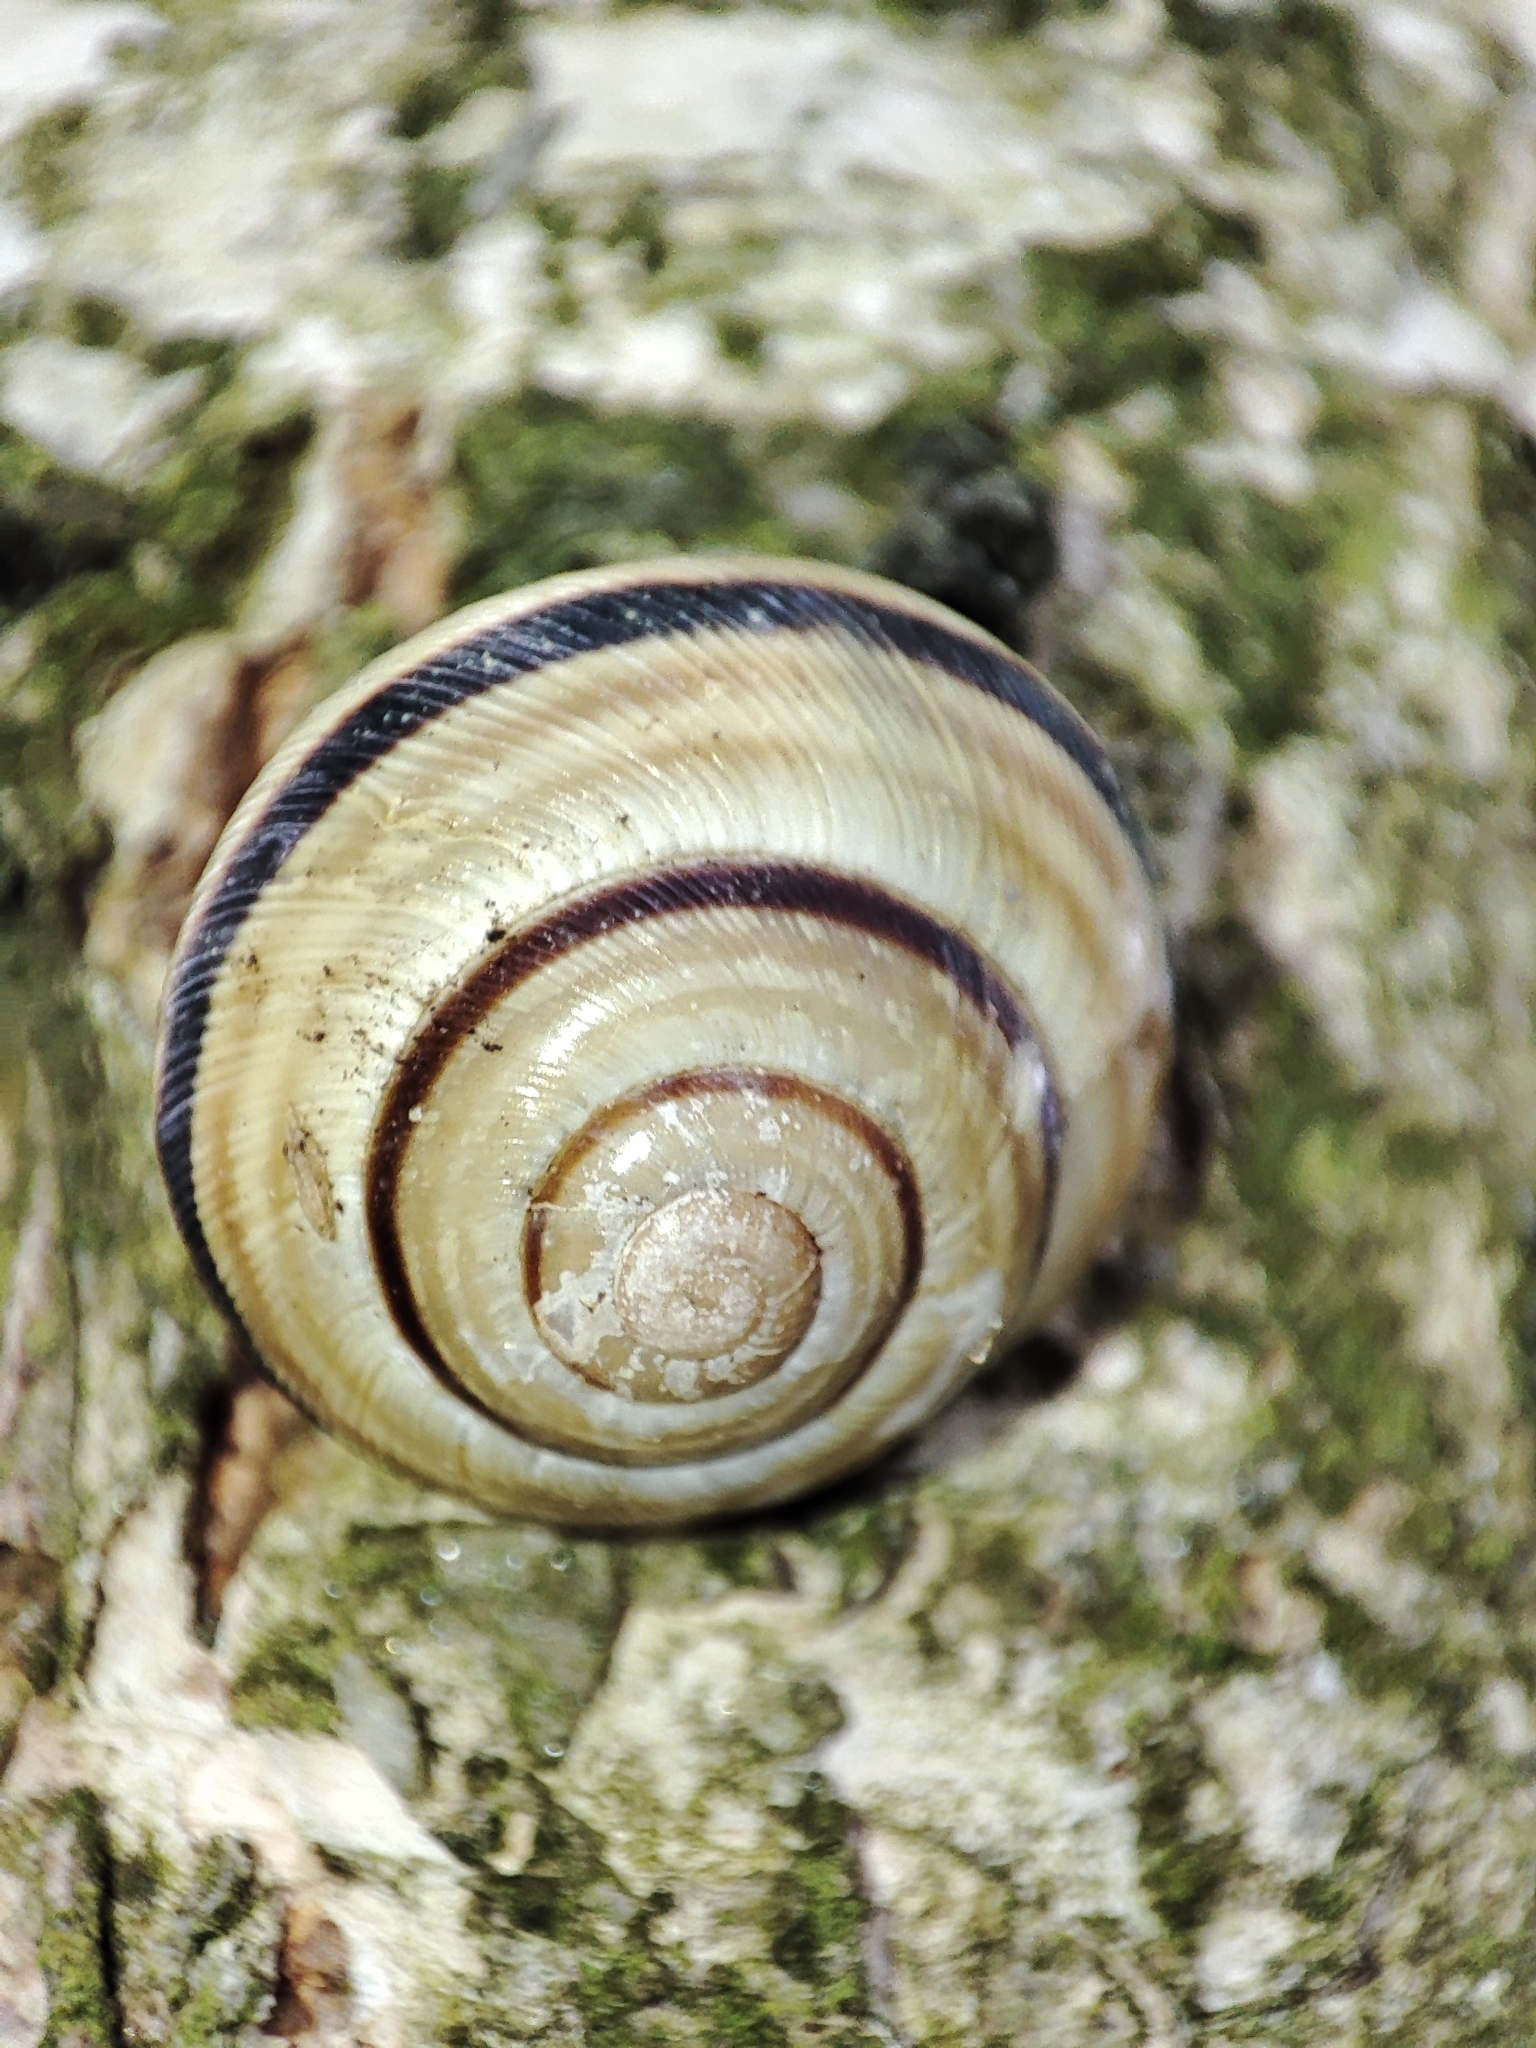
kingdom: Animalia
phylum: Mollusca
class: Gastropoda
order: Stylommatophora
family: Helicidae
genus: Caucasotachea
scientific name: Caucasotachea vindobonensis
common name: European helicid land snail
